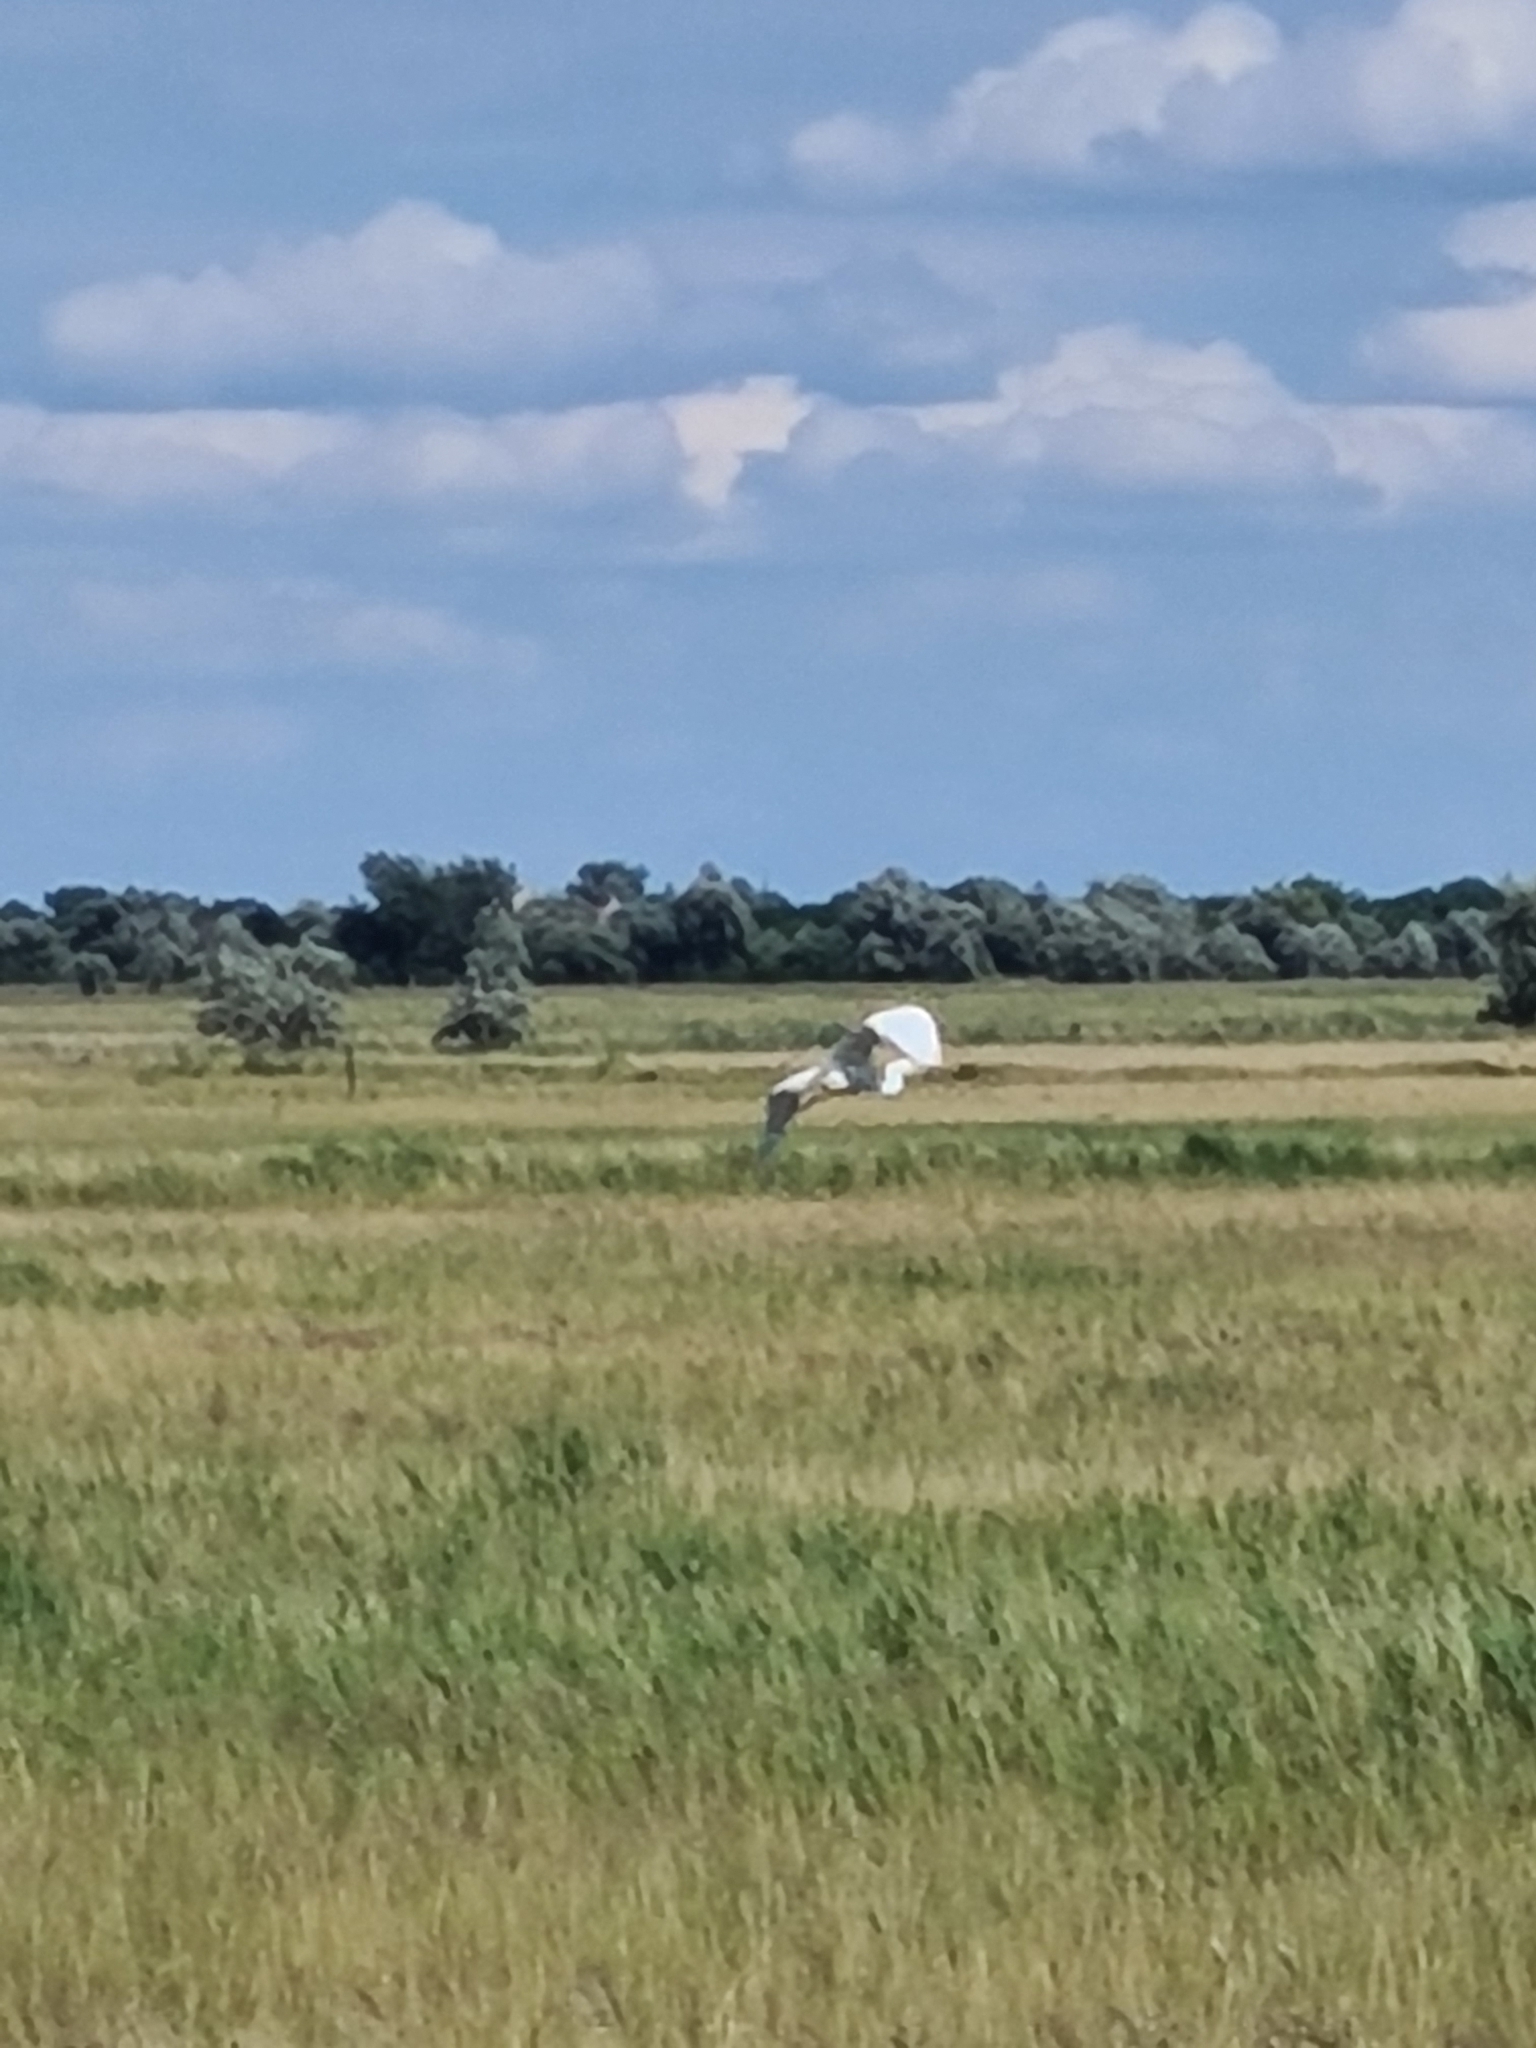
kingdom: Animalia
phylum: Chordata
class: Aves
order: Pelecaniformes
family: Ardeidae
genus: Ardea
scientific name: Ardea alba
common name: Great egret
